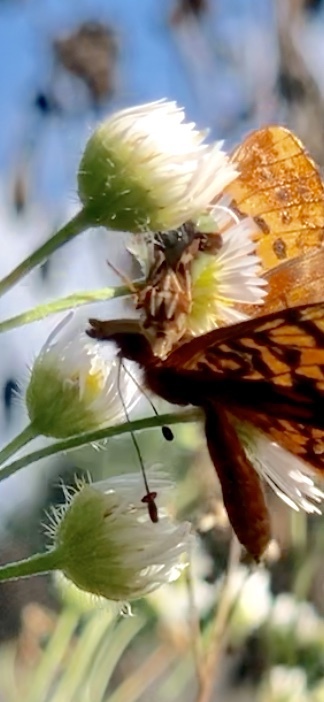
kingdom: Animalia
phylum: Arthropoda
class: Insecta
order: Lepidoptera
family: Nymphalidae
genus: Clossiana
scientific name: Clossiana toddi
